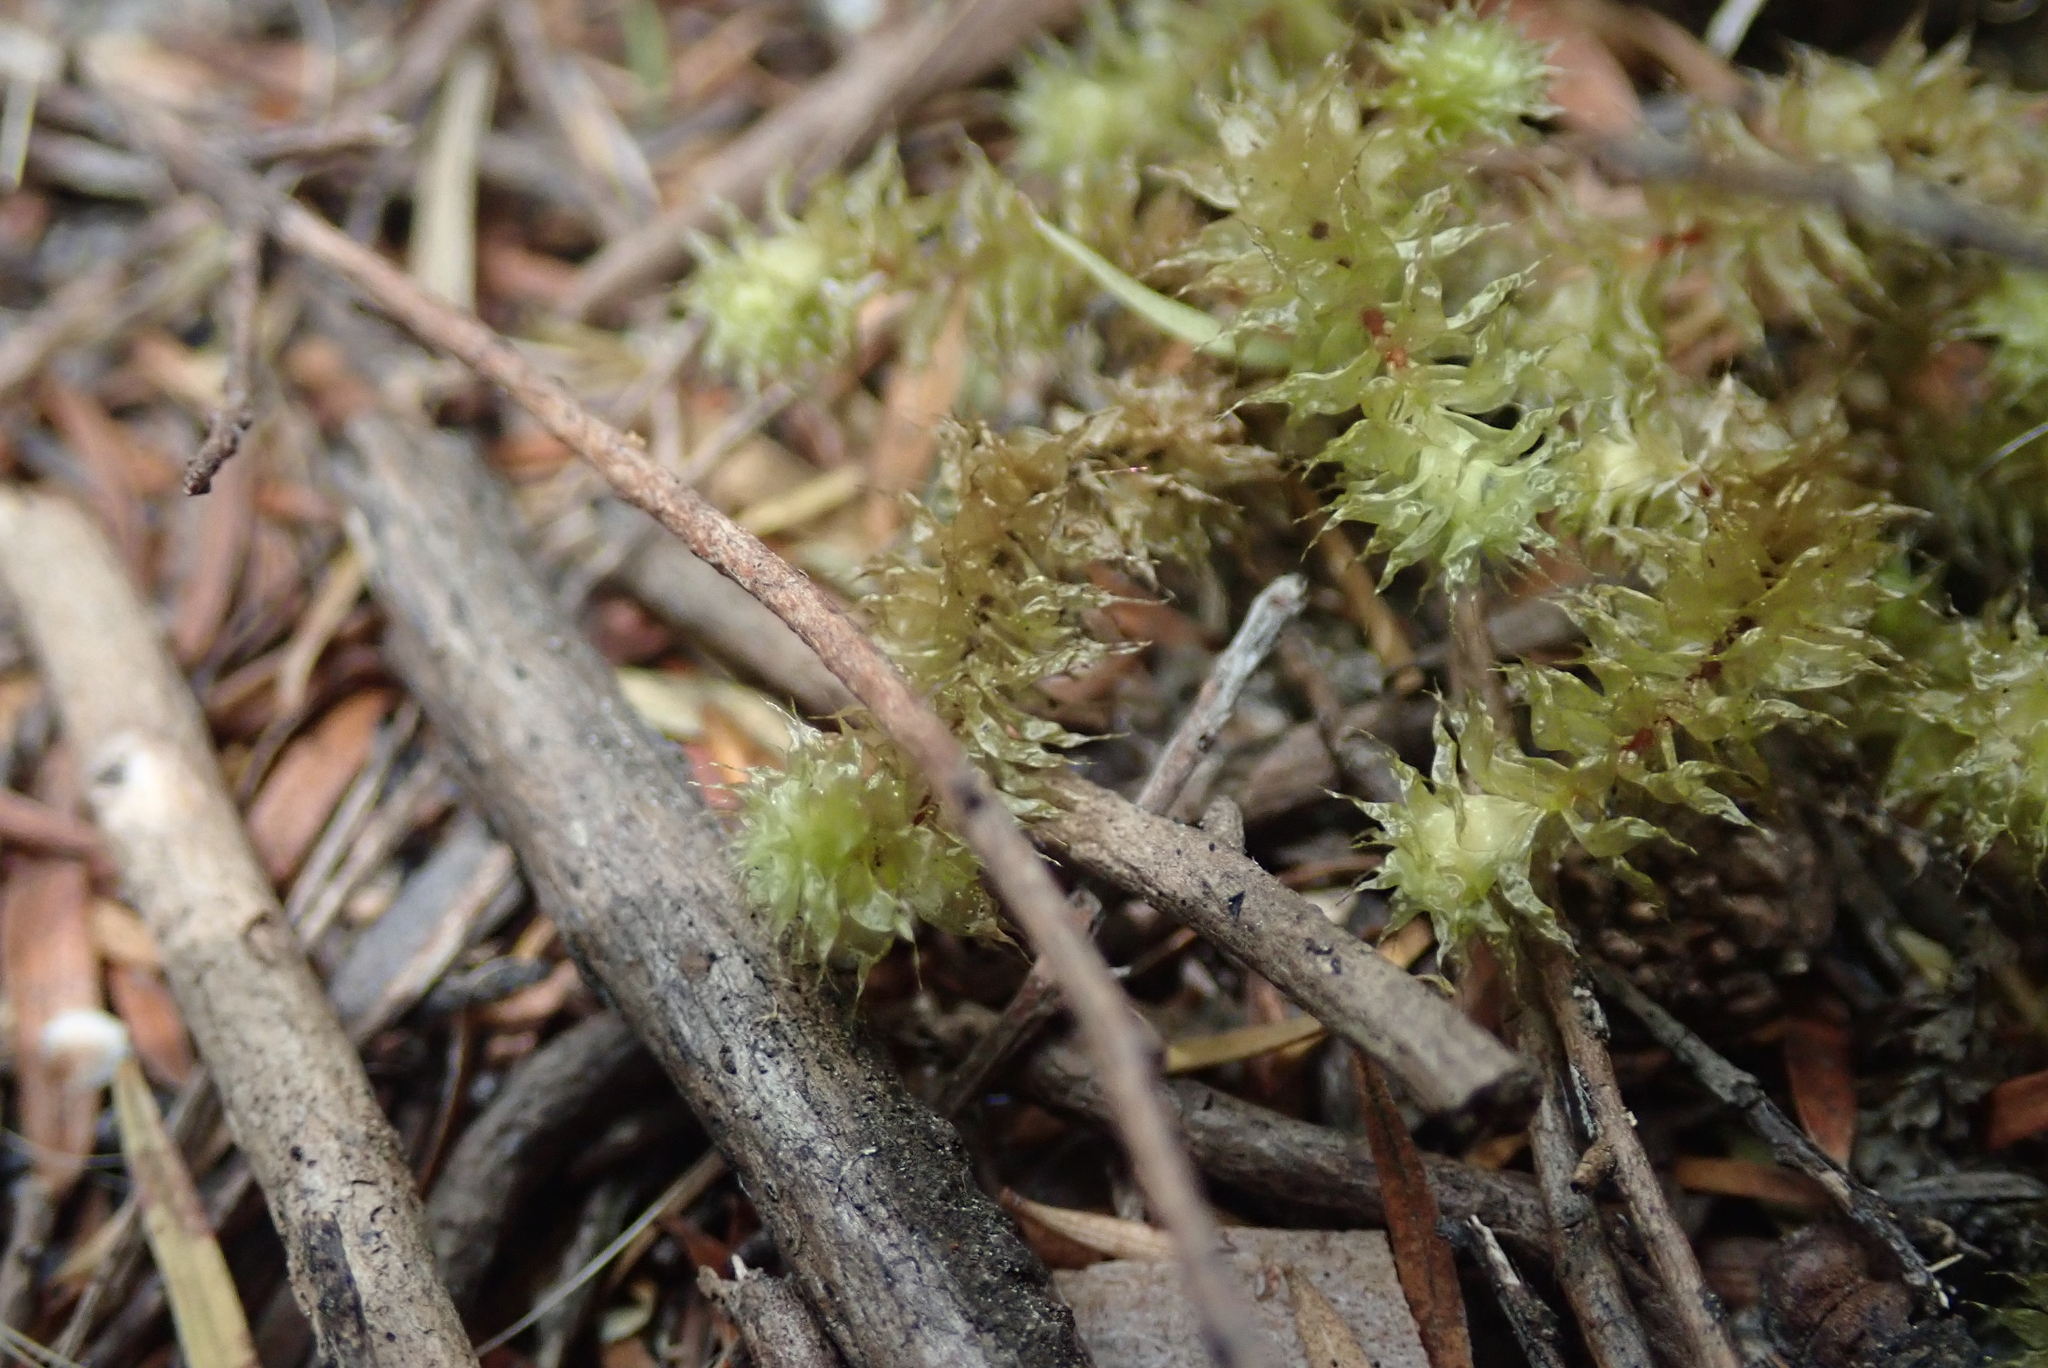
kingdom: Plantae
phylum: Bryophyta
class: Bryopsida
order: Ptychomniales
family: Ptychomniaceae
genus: Ptychomnion
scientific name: Ptychomnion aciculare
